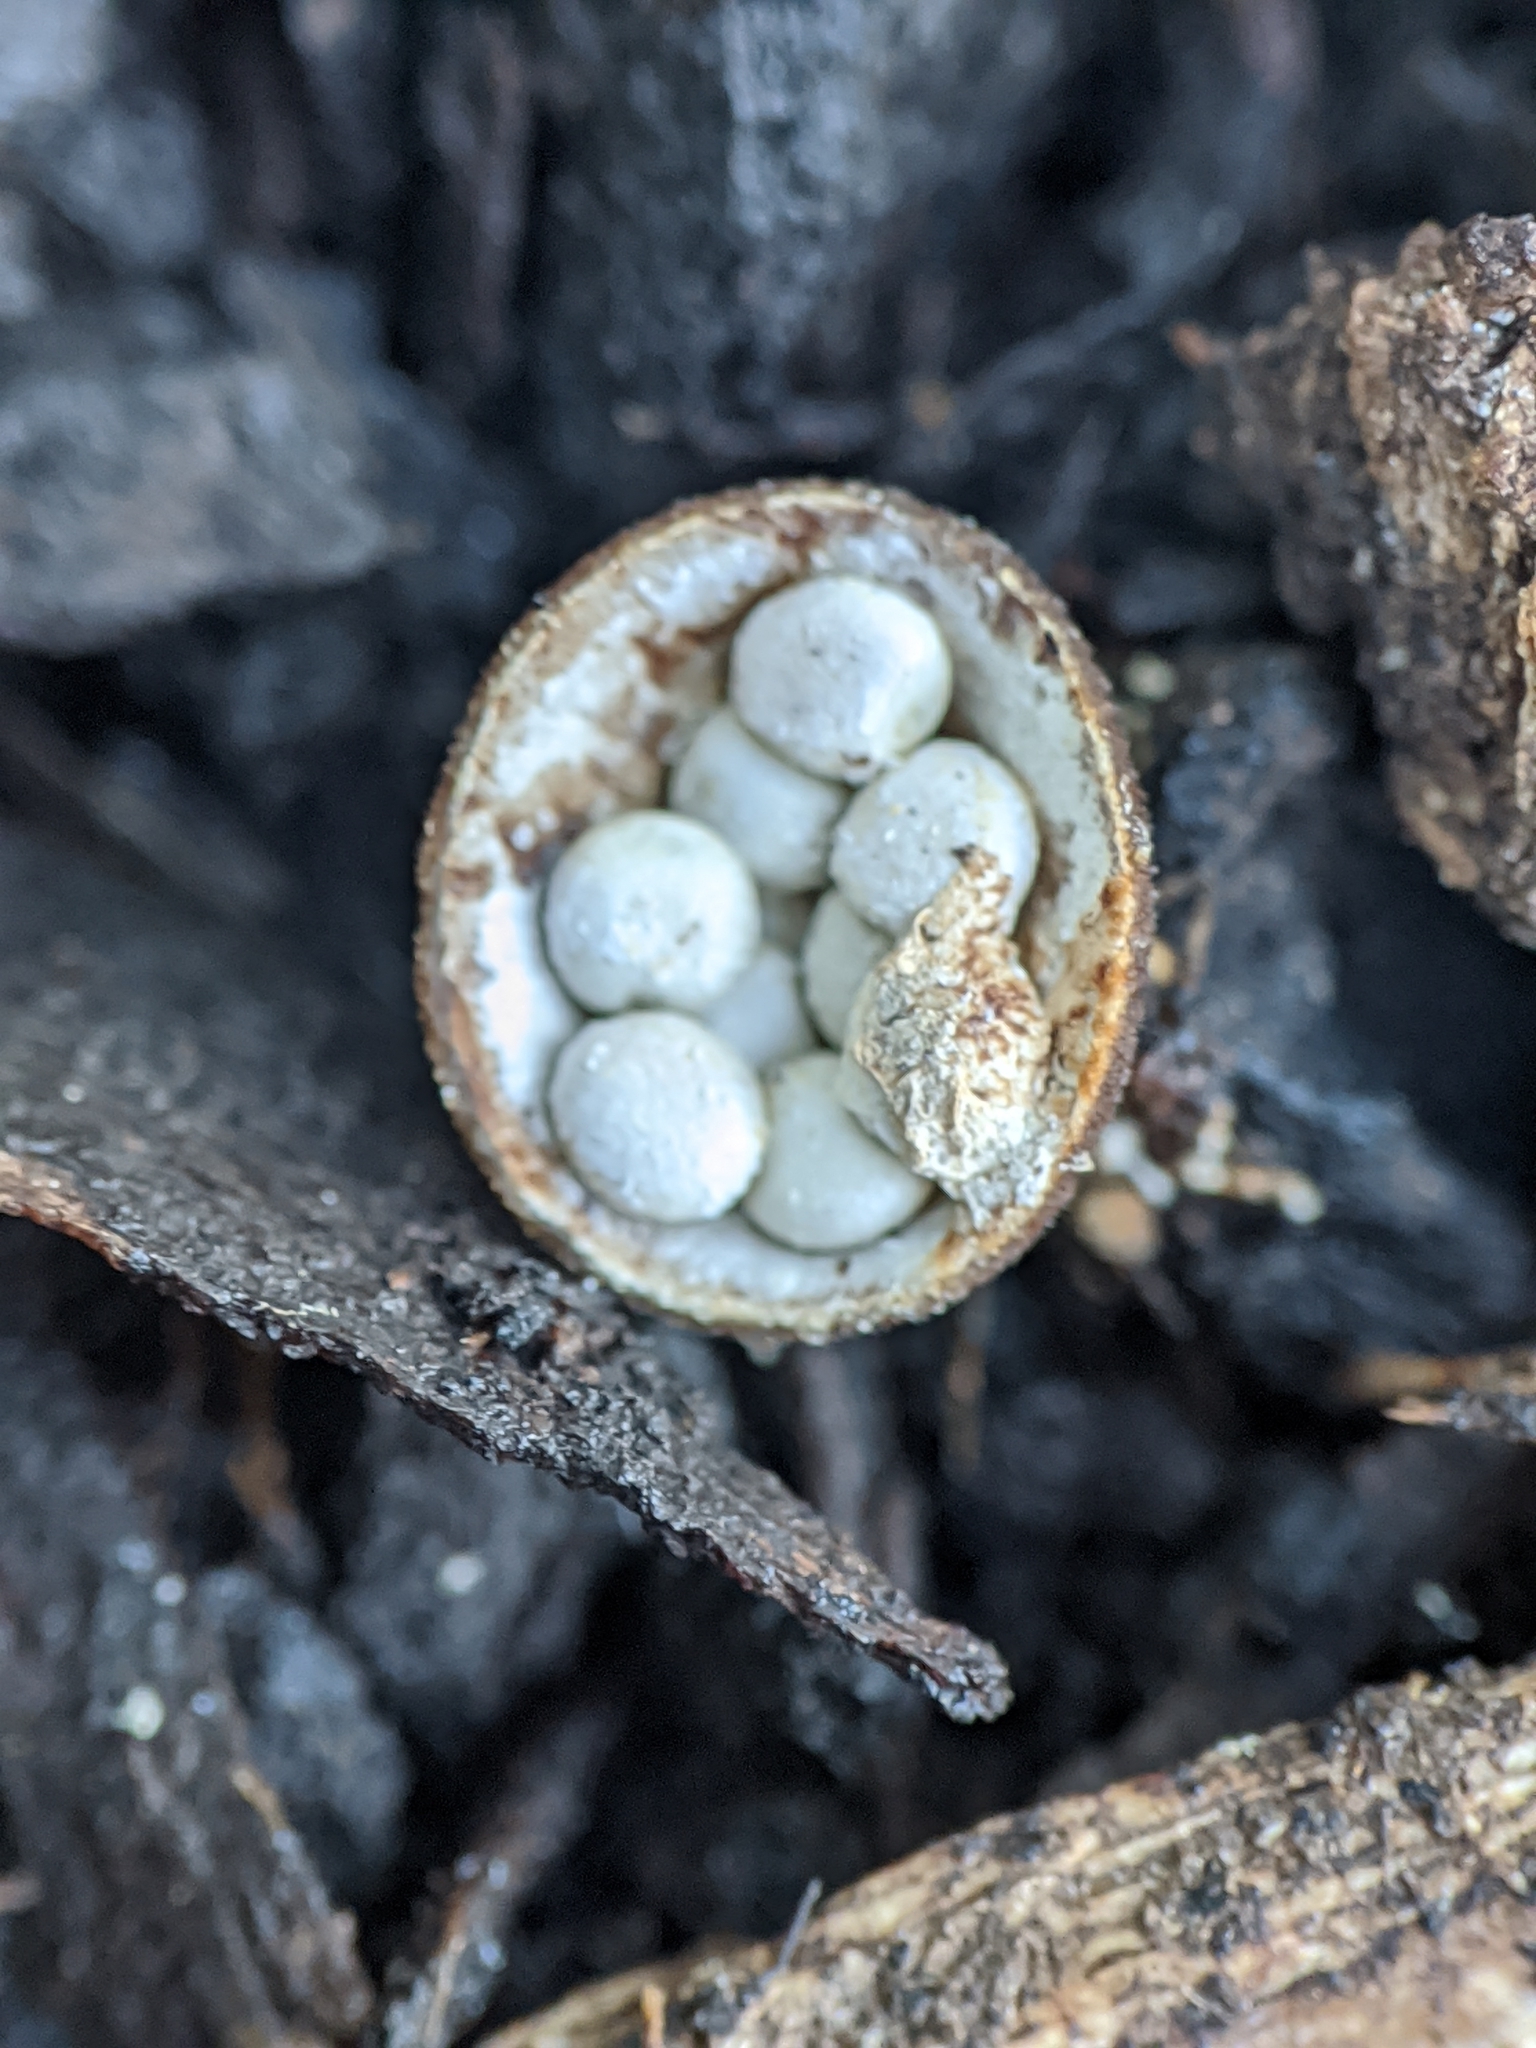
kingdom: Fungi
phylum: Basidiomycota
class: Agaricomycetes
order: Agaricales
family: Nidulariaceae
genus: Crucibulum
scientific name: Crucibulum laeve
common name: Common bird's nest
